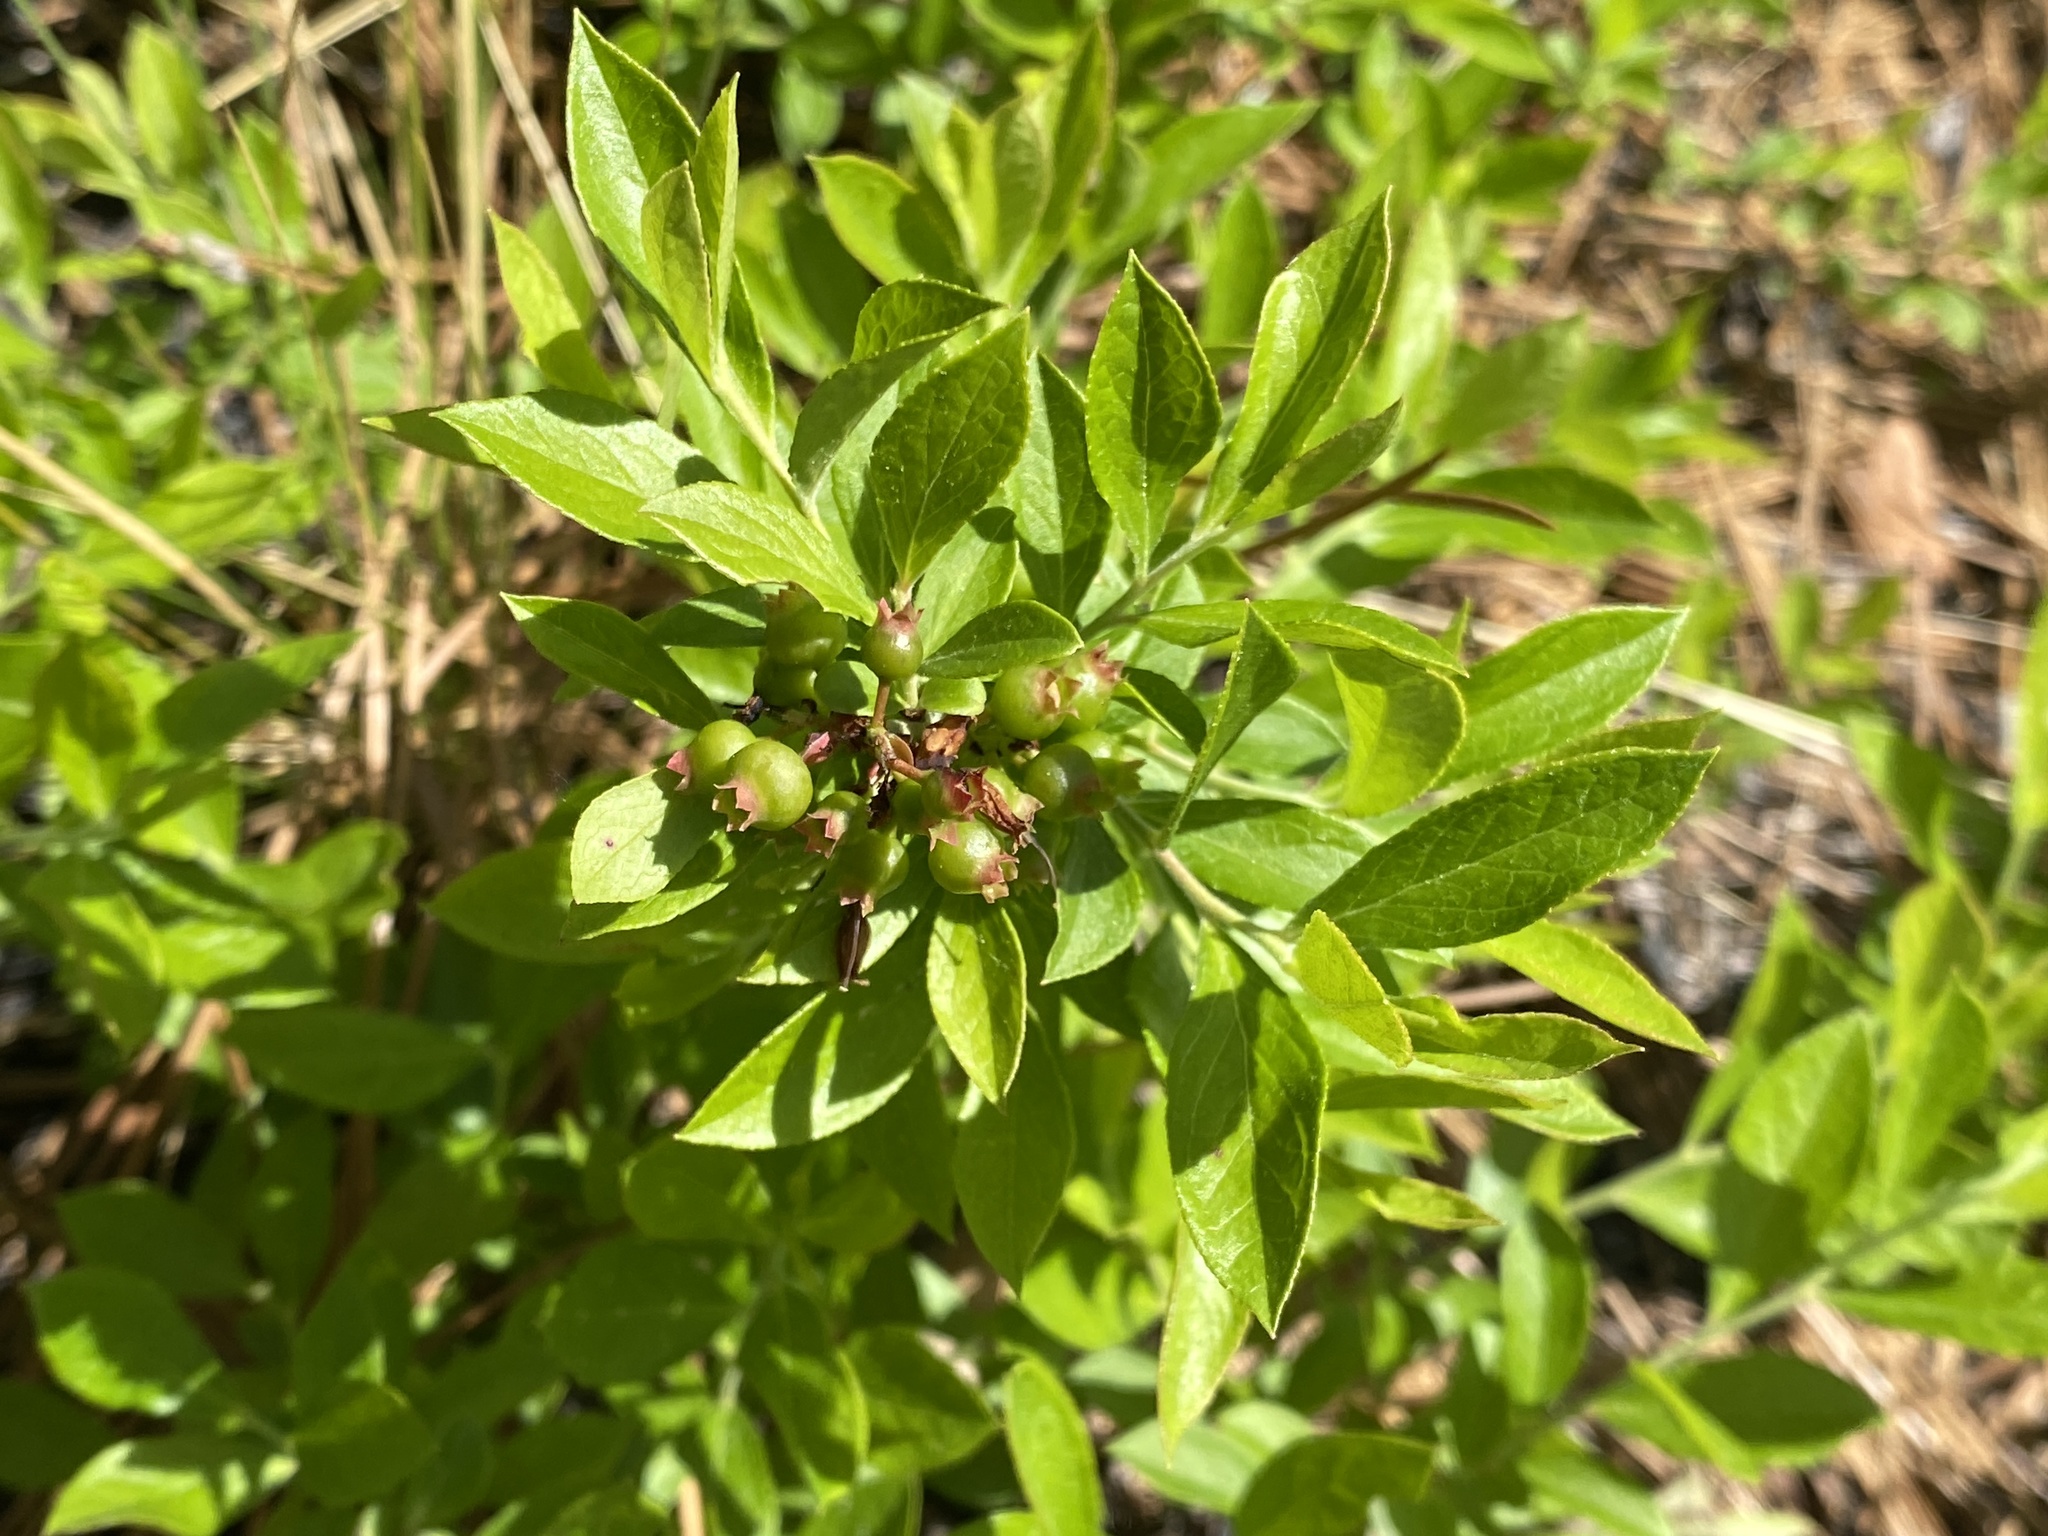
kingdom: Plantae
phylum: Tracheophyta
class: Magnoliopsida
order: Ericales
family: Ericaceae
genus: Vaccinium
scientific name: Vaccinium tenellum
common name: Southern blueberry
